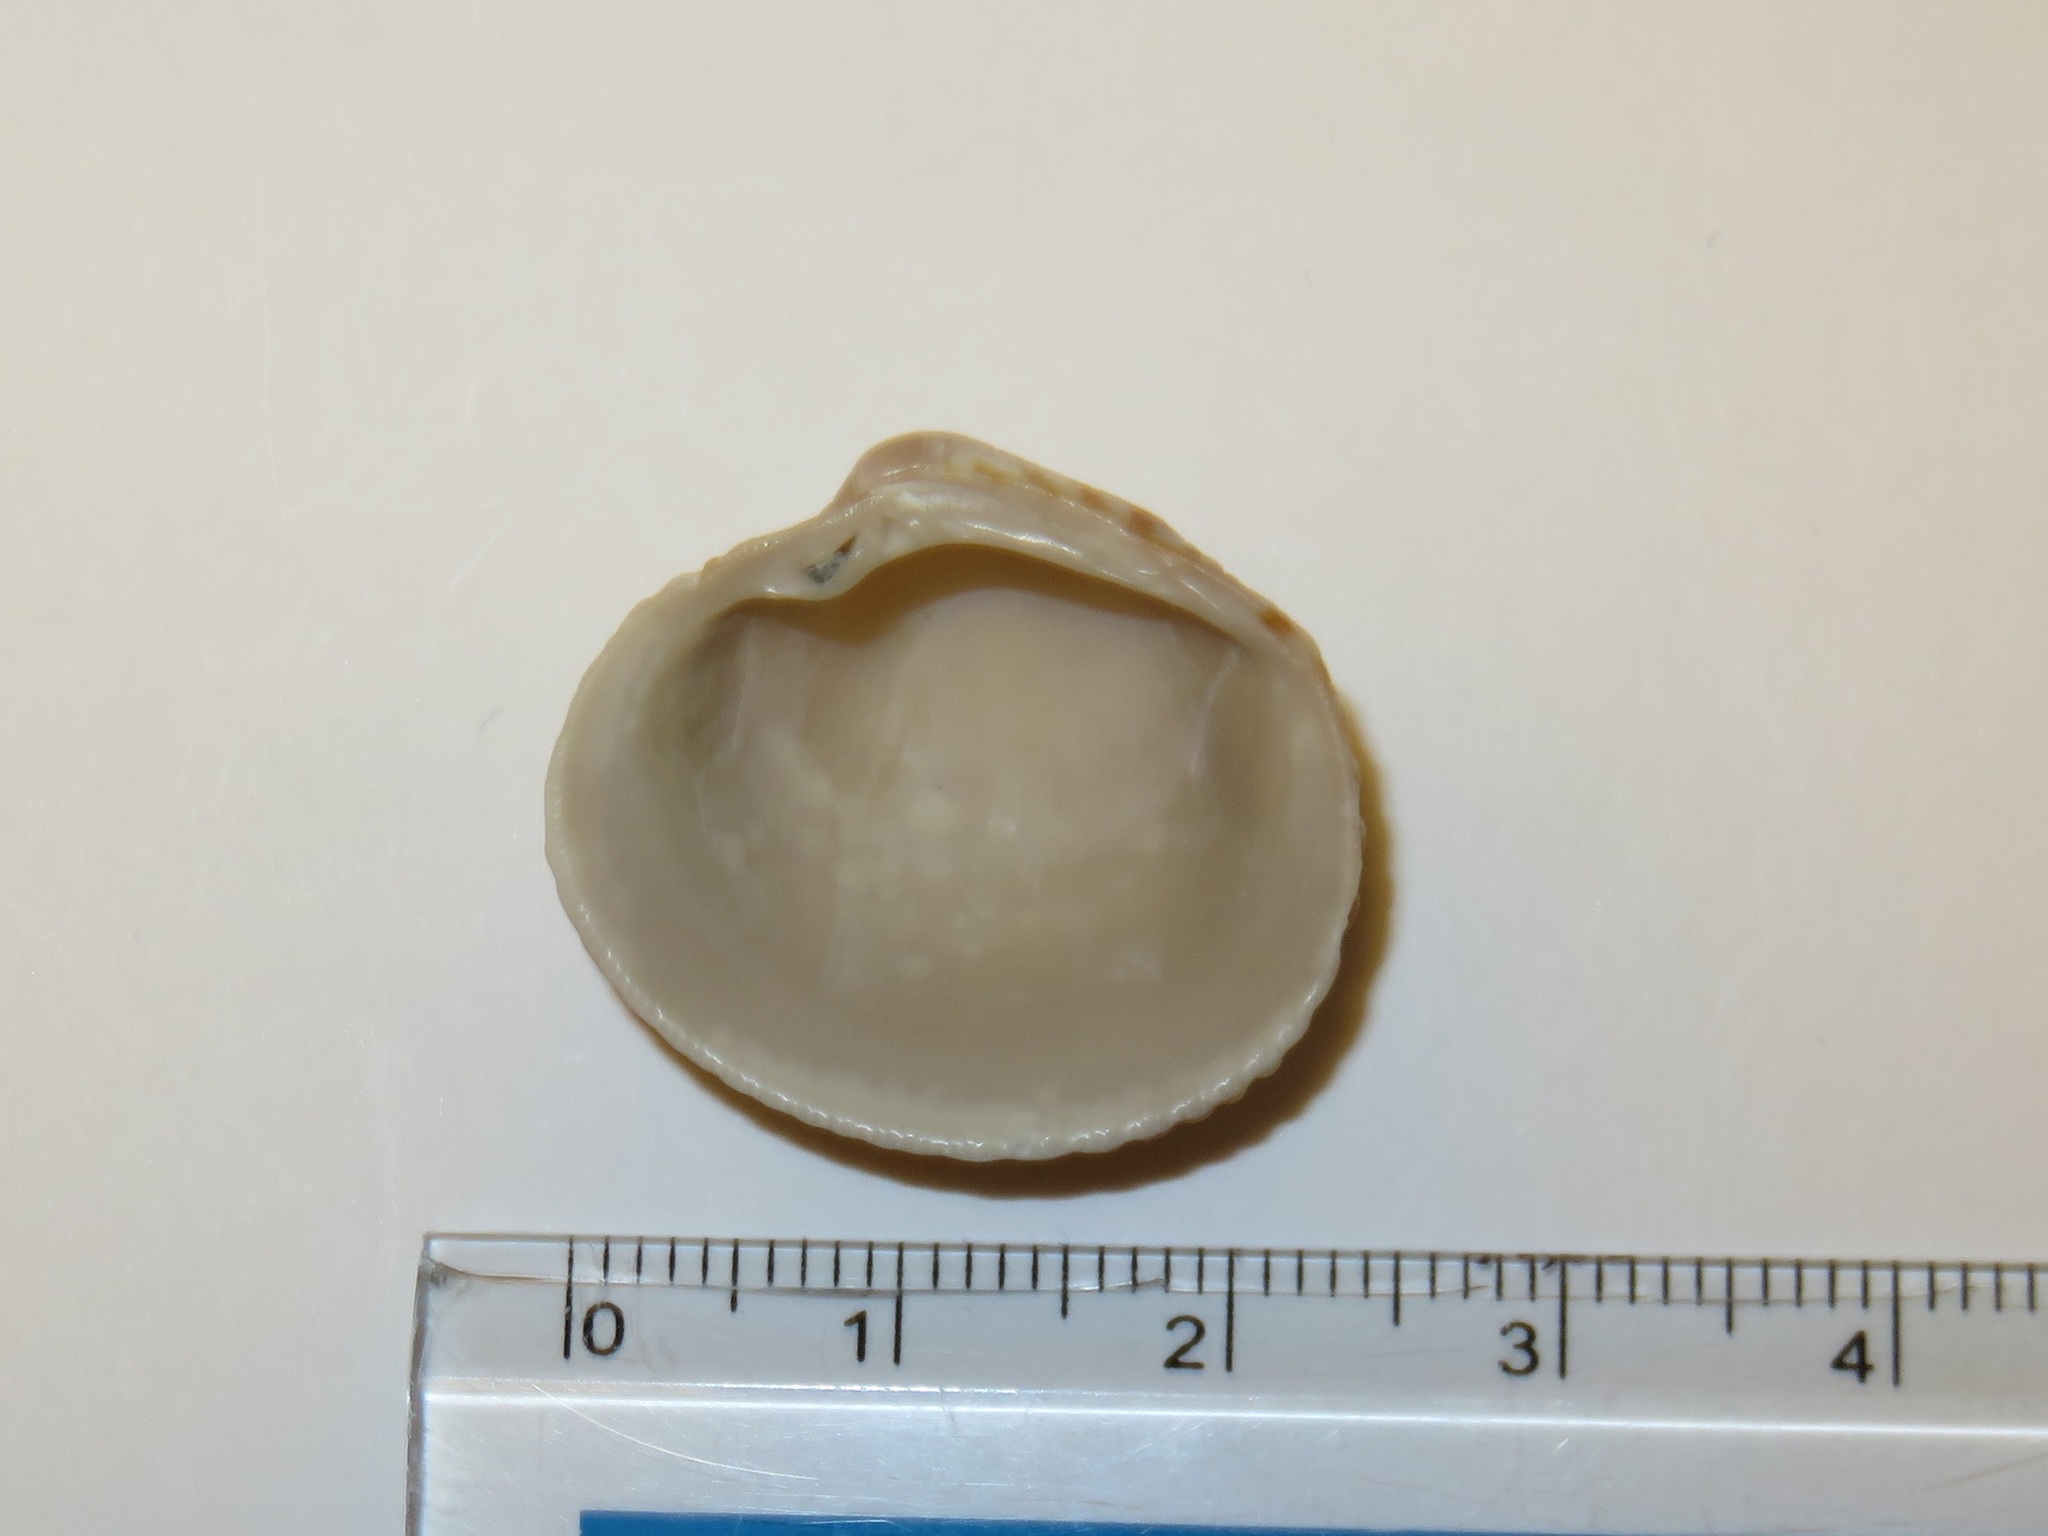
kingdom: Animalia
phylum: Mollusca
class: Bivalvia
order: Venerida
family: Veneridae
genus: Leukoma
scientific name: Leukoma jedoensis
